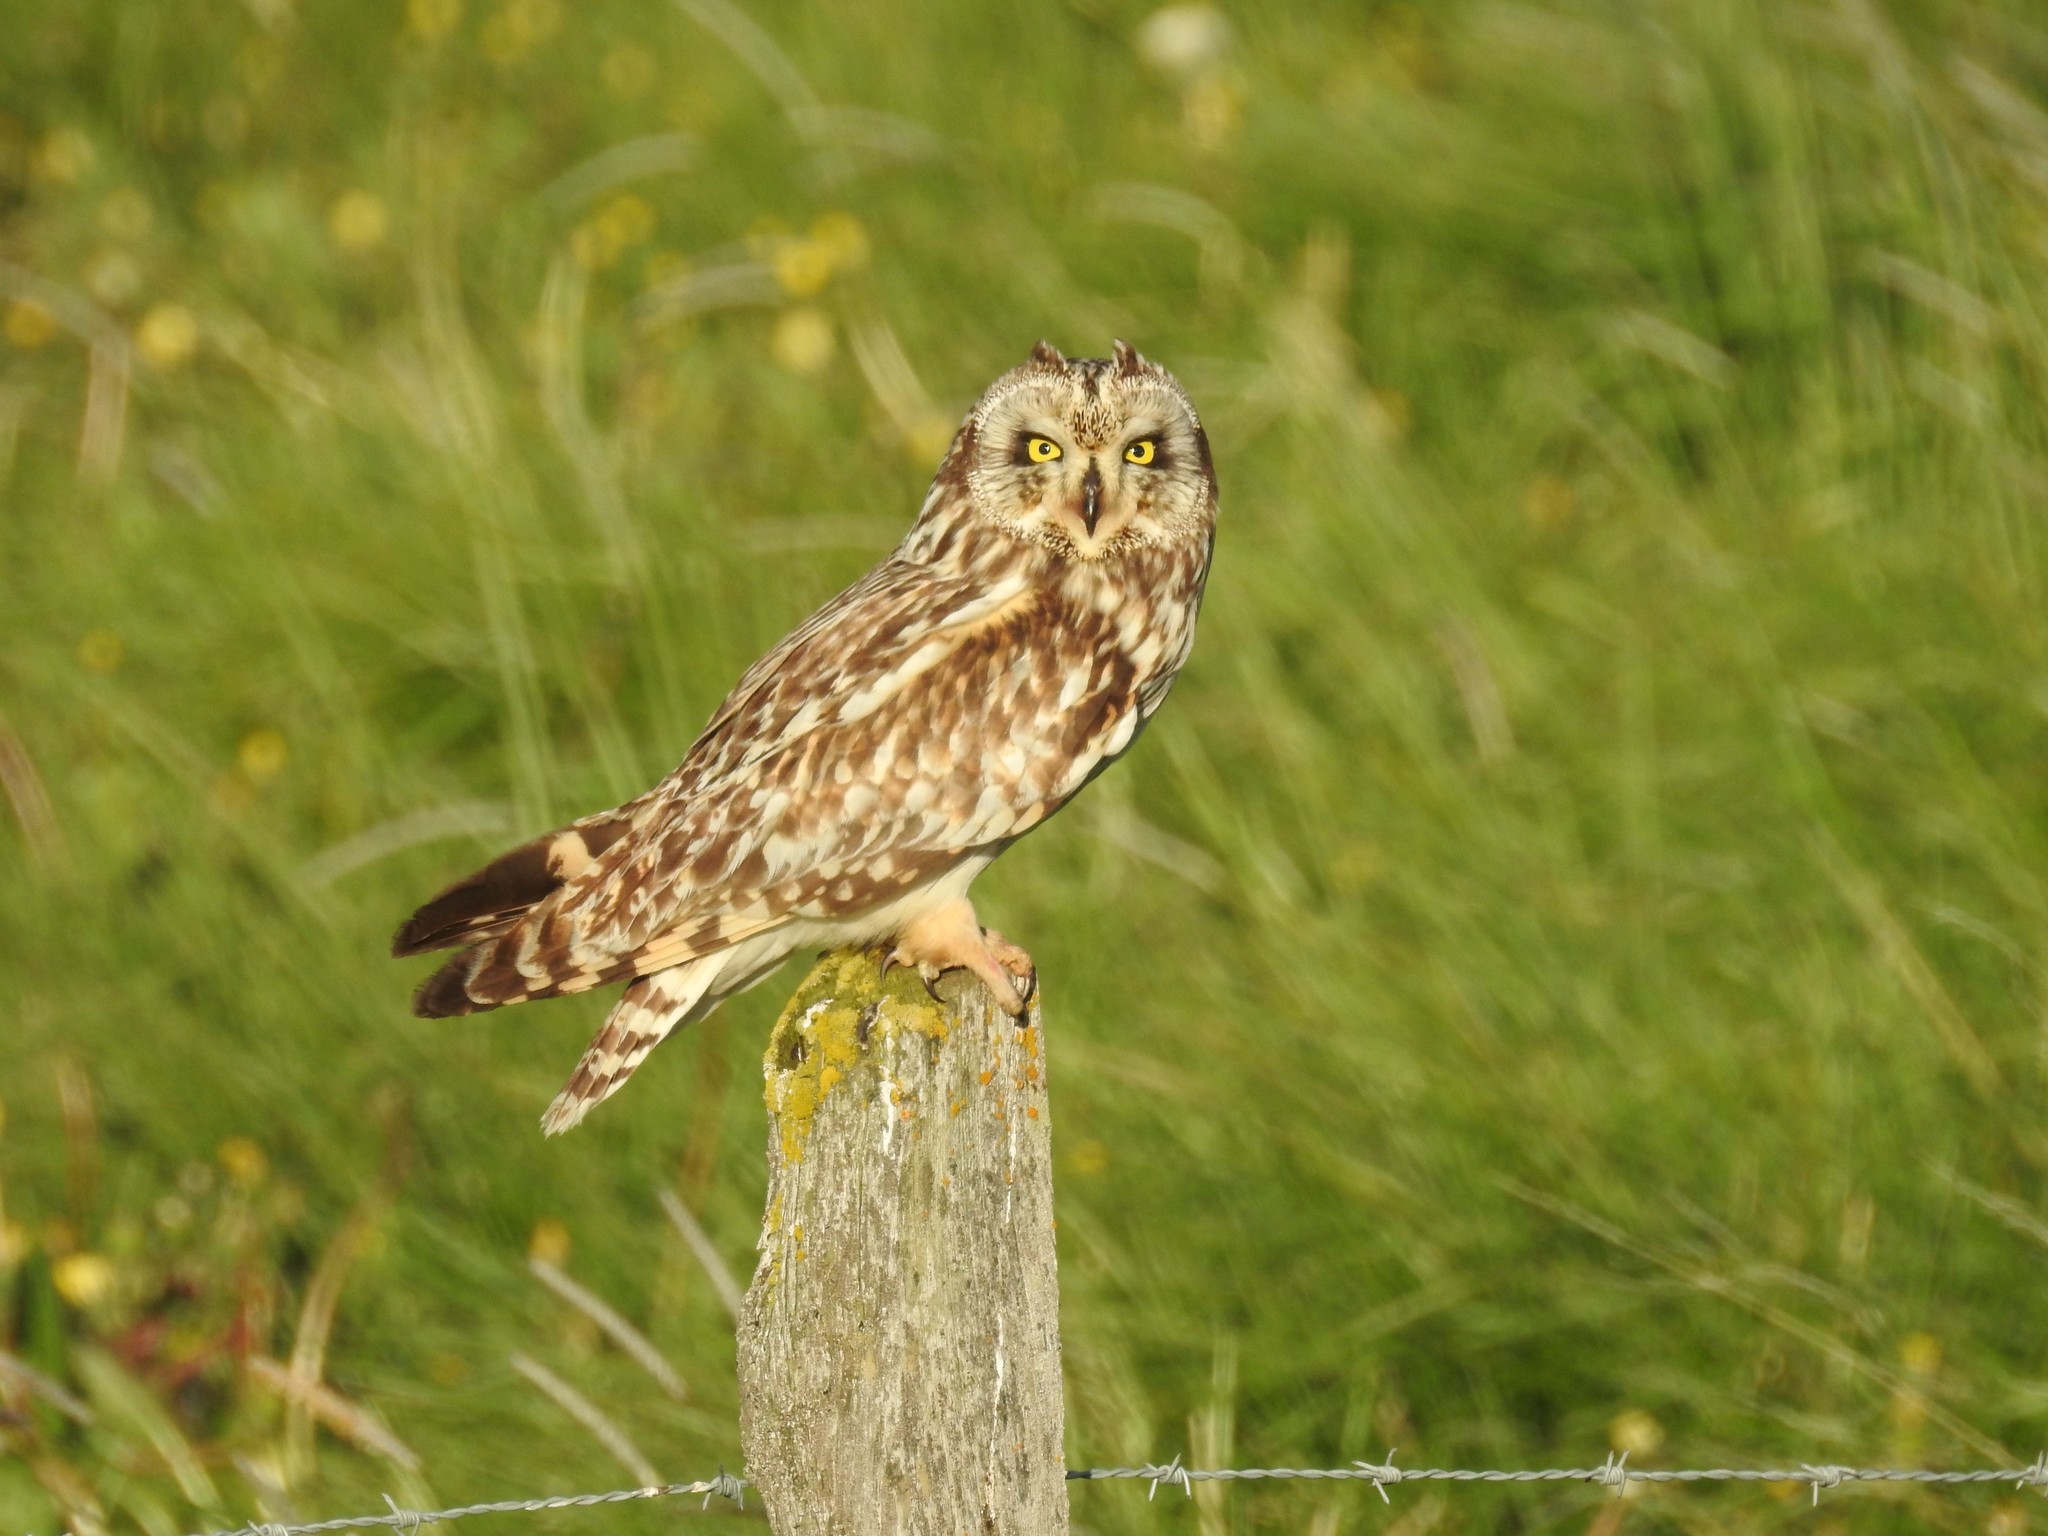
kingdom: Animalia
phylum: Chordata
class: Aves
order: Strigiformes
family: Strigidae
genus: Asio
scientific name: Asio flammeus
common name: Short-eared owl
